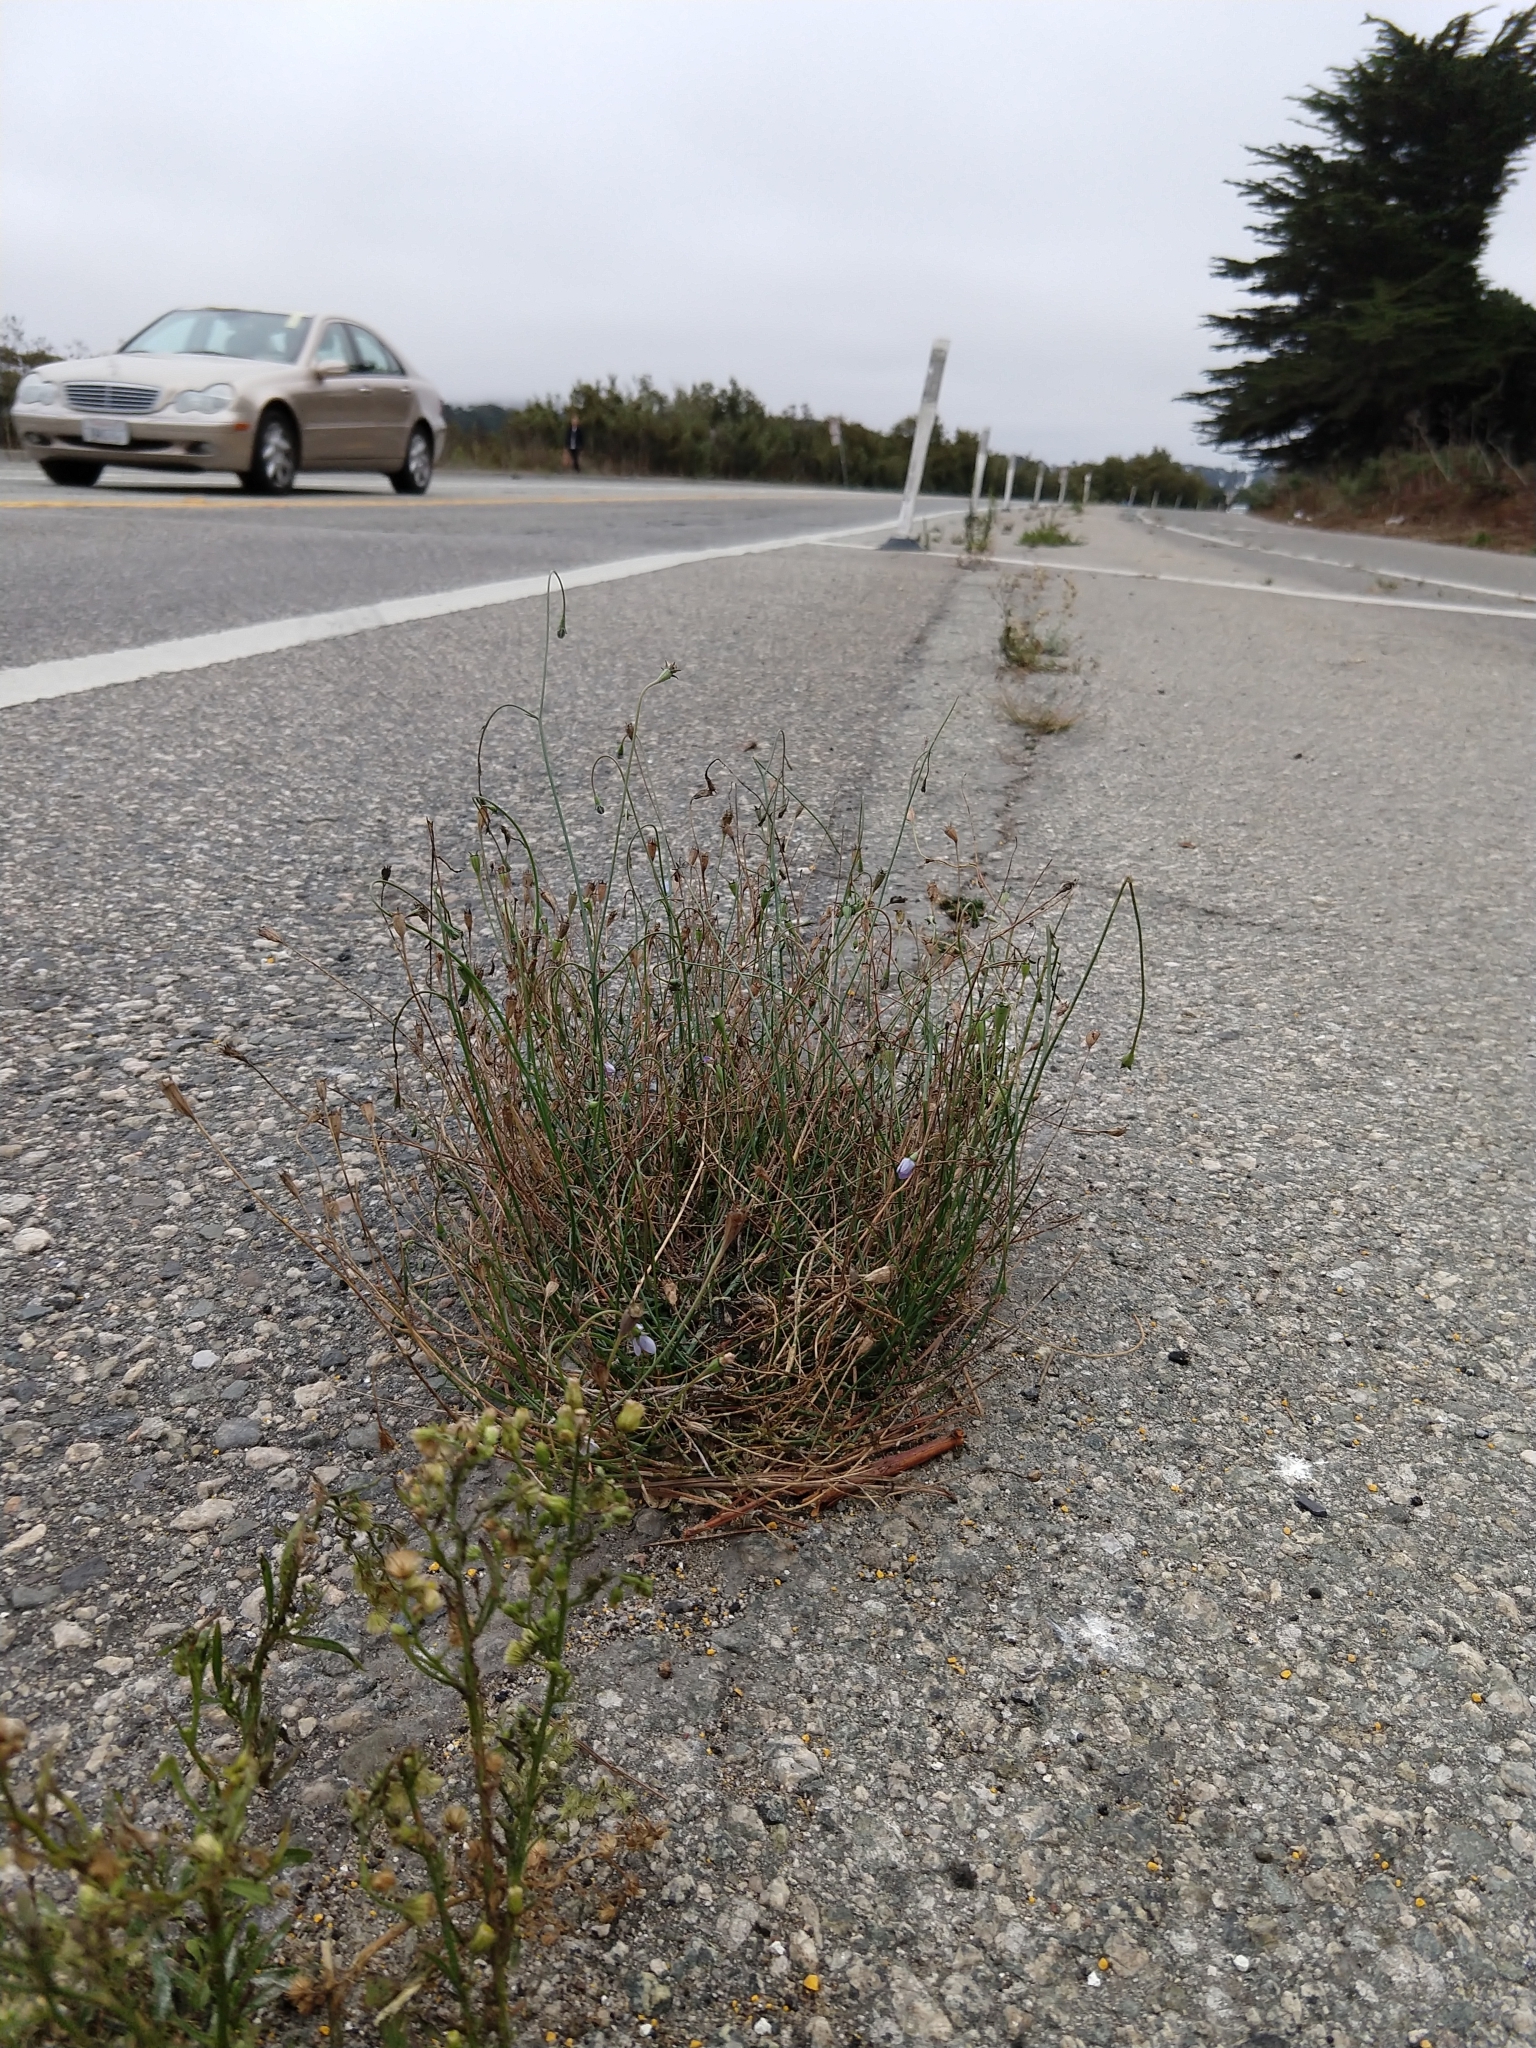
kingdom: Plantae
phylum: Tracheophyta
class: Magnoliopsida
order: Asterales
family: Campanulaceae
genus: Wahlenbergia
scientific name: Wahlenbergia marginata
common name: Southern rockbell
